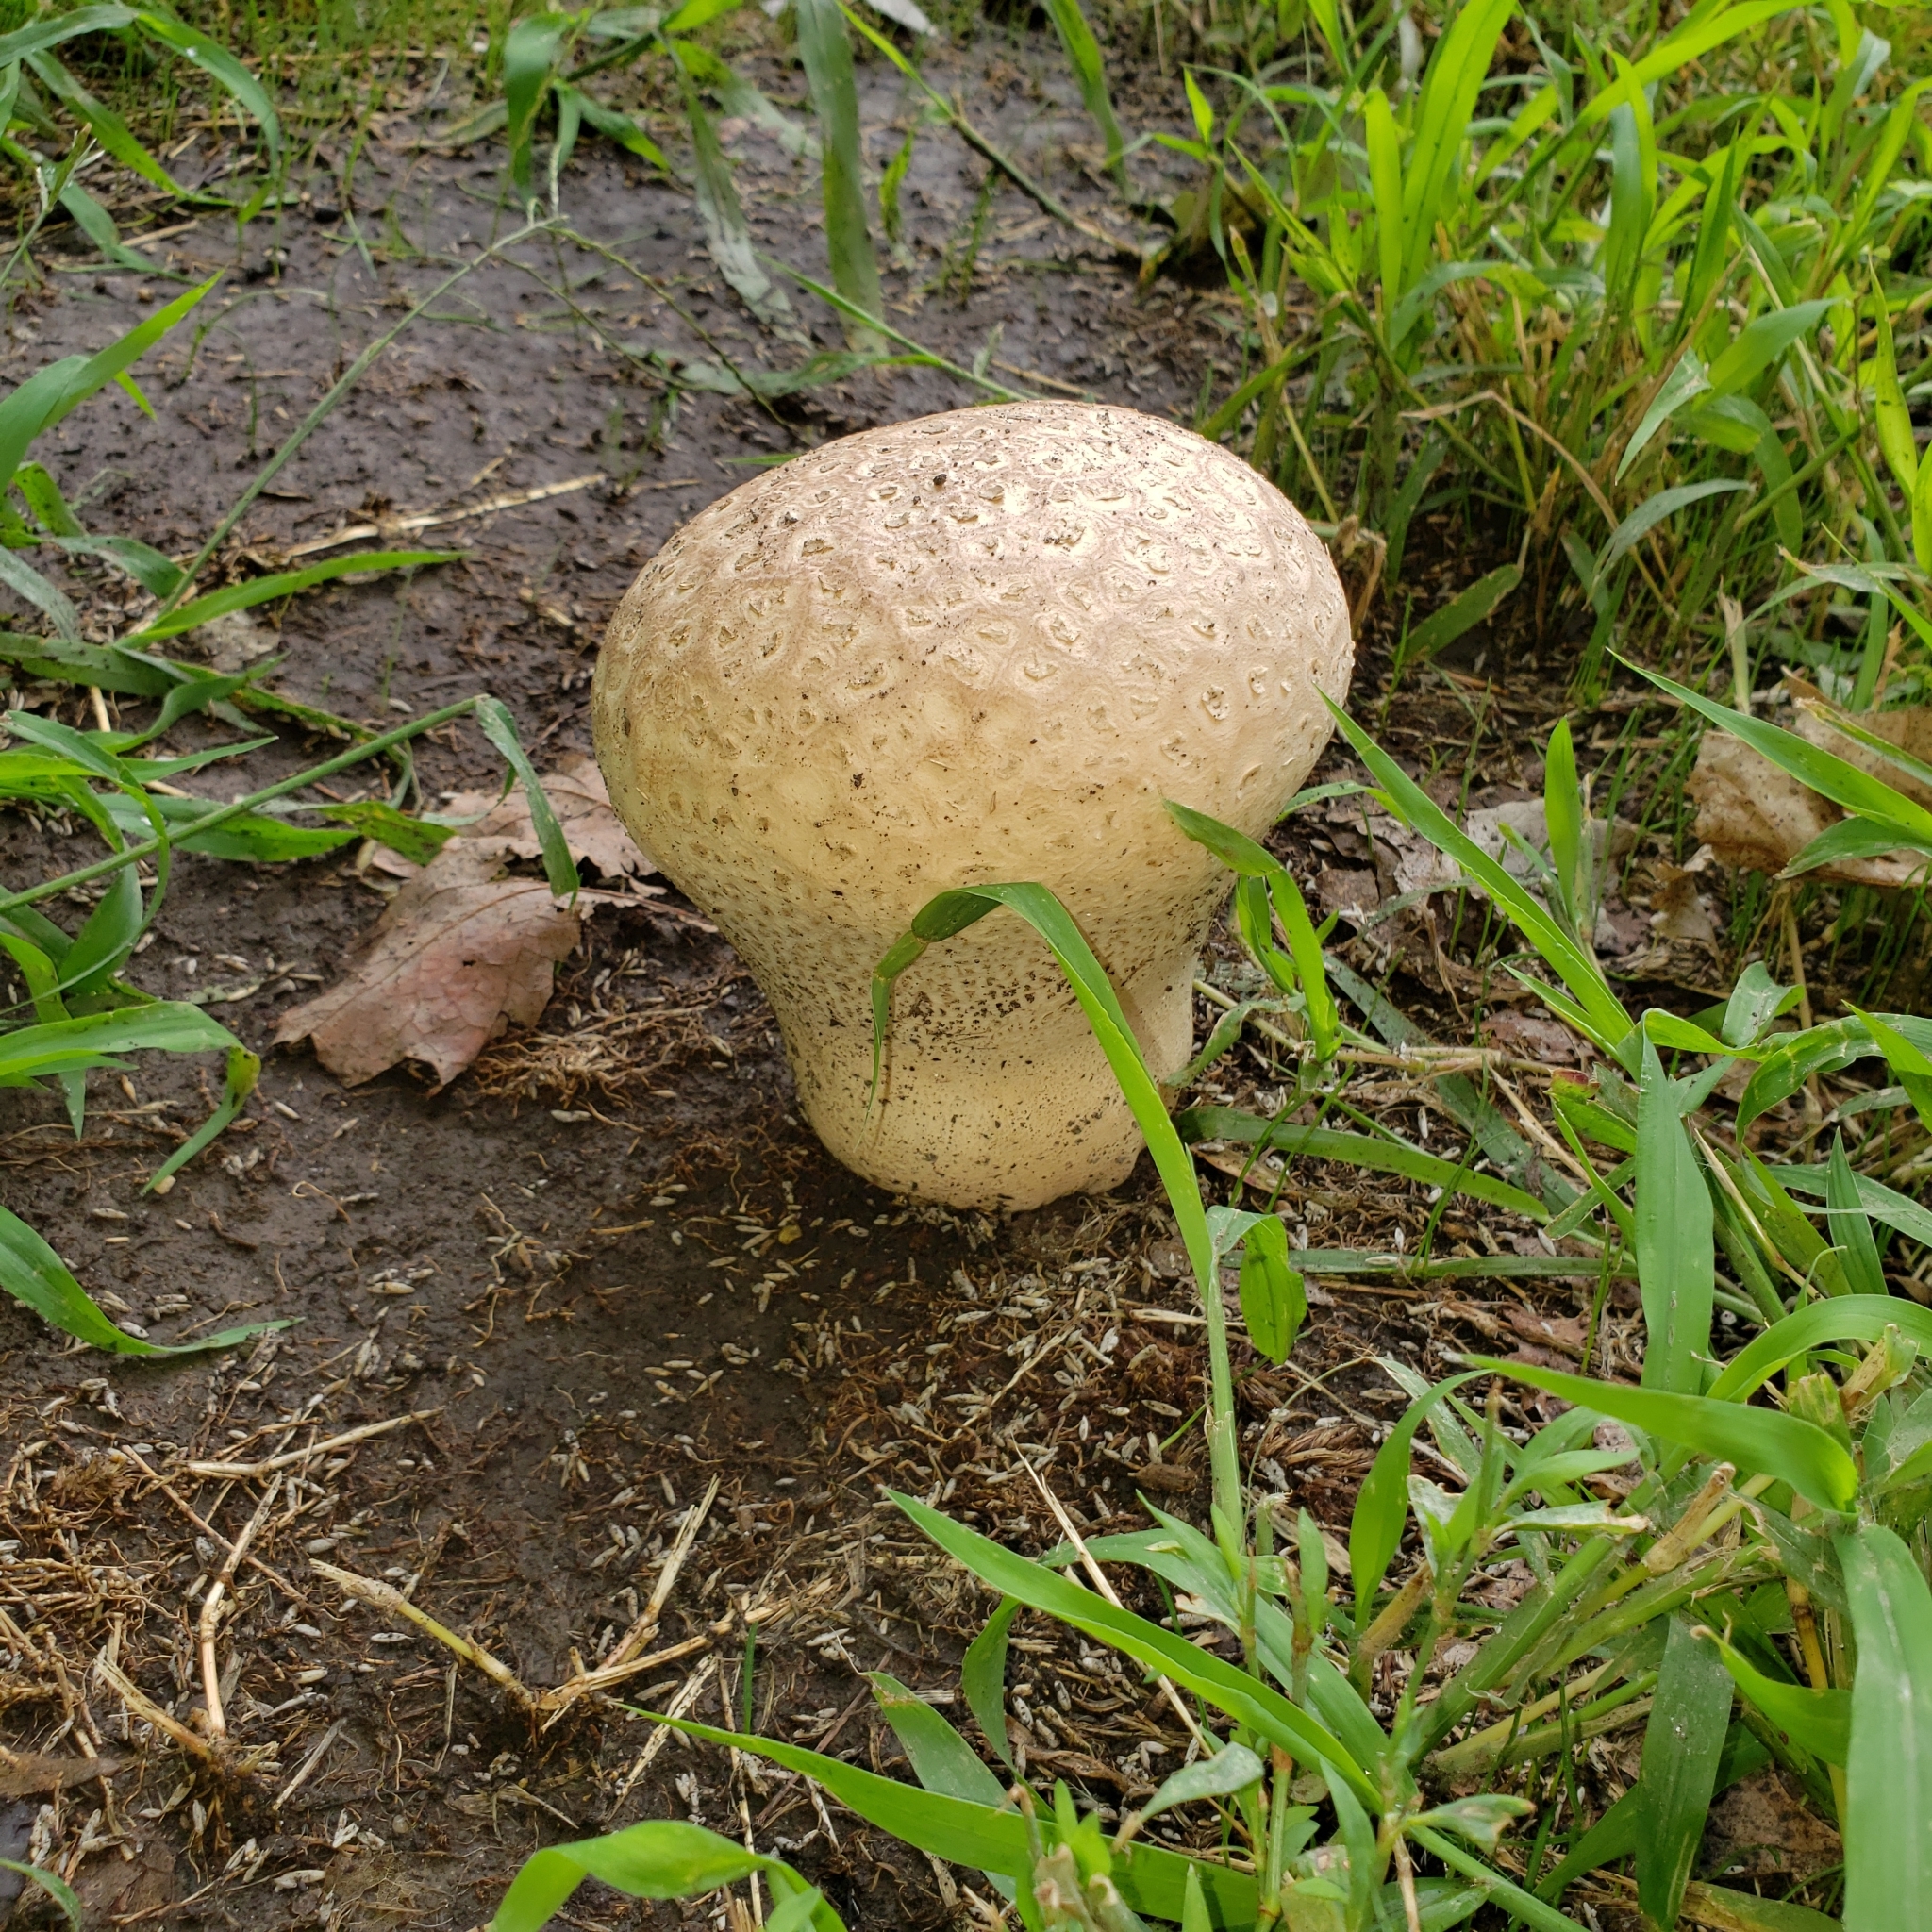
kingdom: Fungi
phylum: Basidiomycota
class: Agaricomycetes
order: Agaricales
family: Lycoperdaceae
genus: Calvatia
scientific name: Calvatia cyathiformis
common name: Purple-spored puffball
